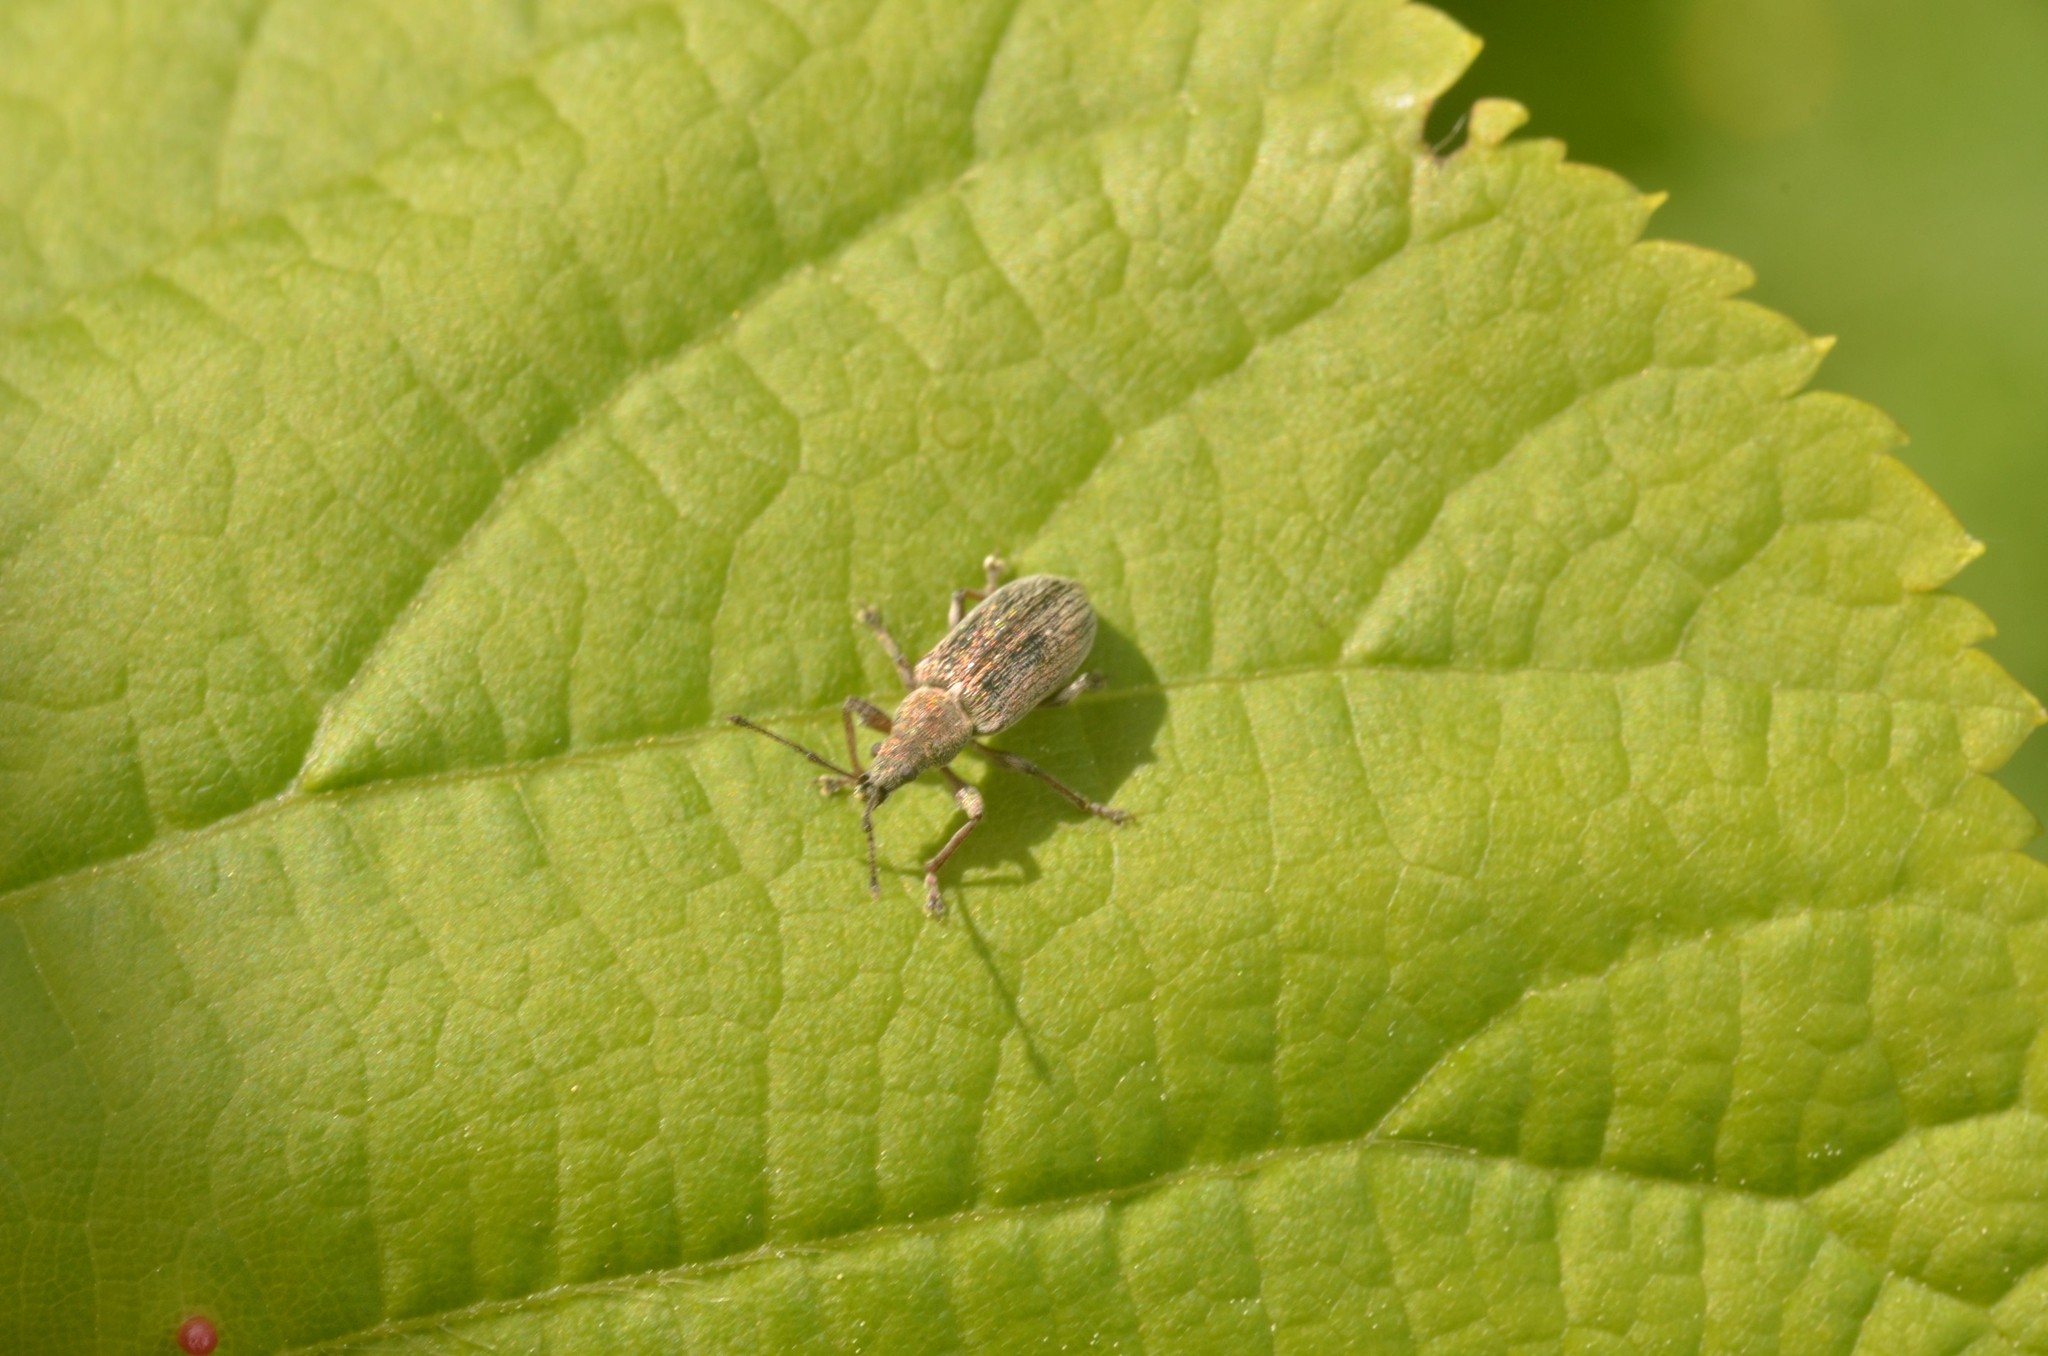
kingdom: Animalia
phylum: Arthropoda
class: Insecta
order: Coleoptera
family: Curculionidae
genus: Phyllobius
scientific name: Phyllobius pyri
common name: Common leaf weevil
